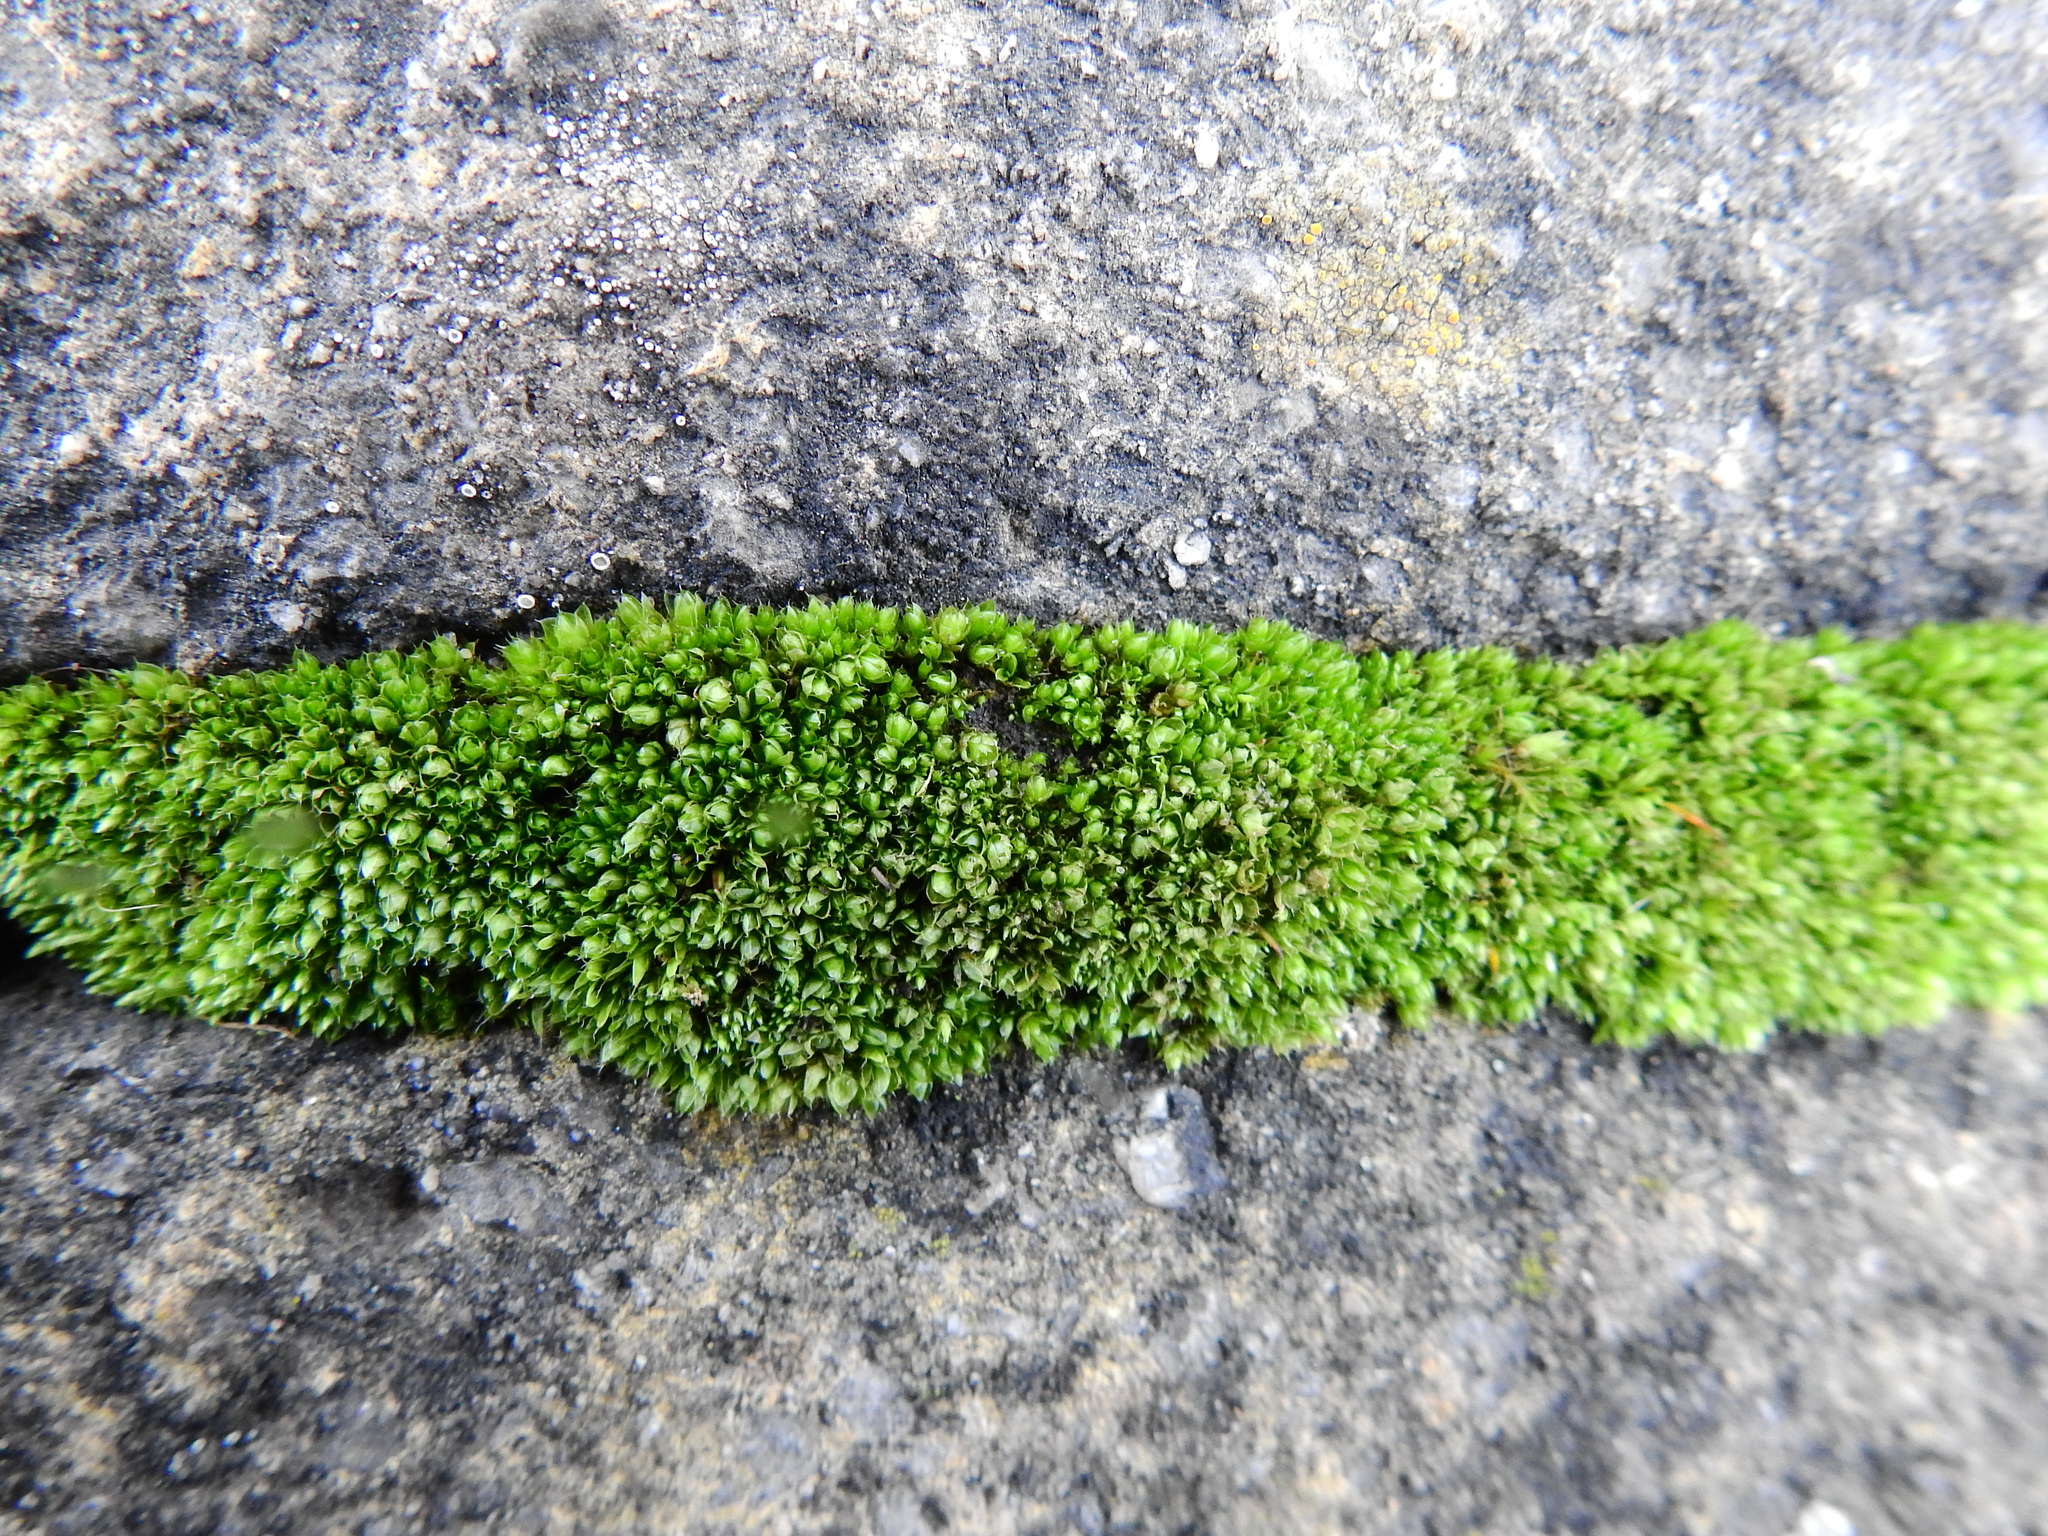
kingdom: Plantae
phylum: Bryophyta
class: Bryopsida
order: Bryales
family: Bryaceae
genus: Rosulabryum
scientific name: Rosulabryum capillare
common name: Capillary thread-moss
